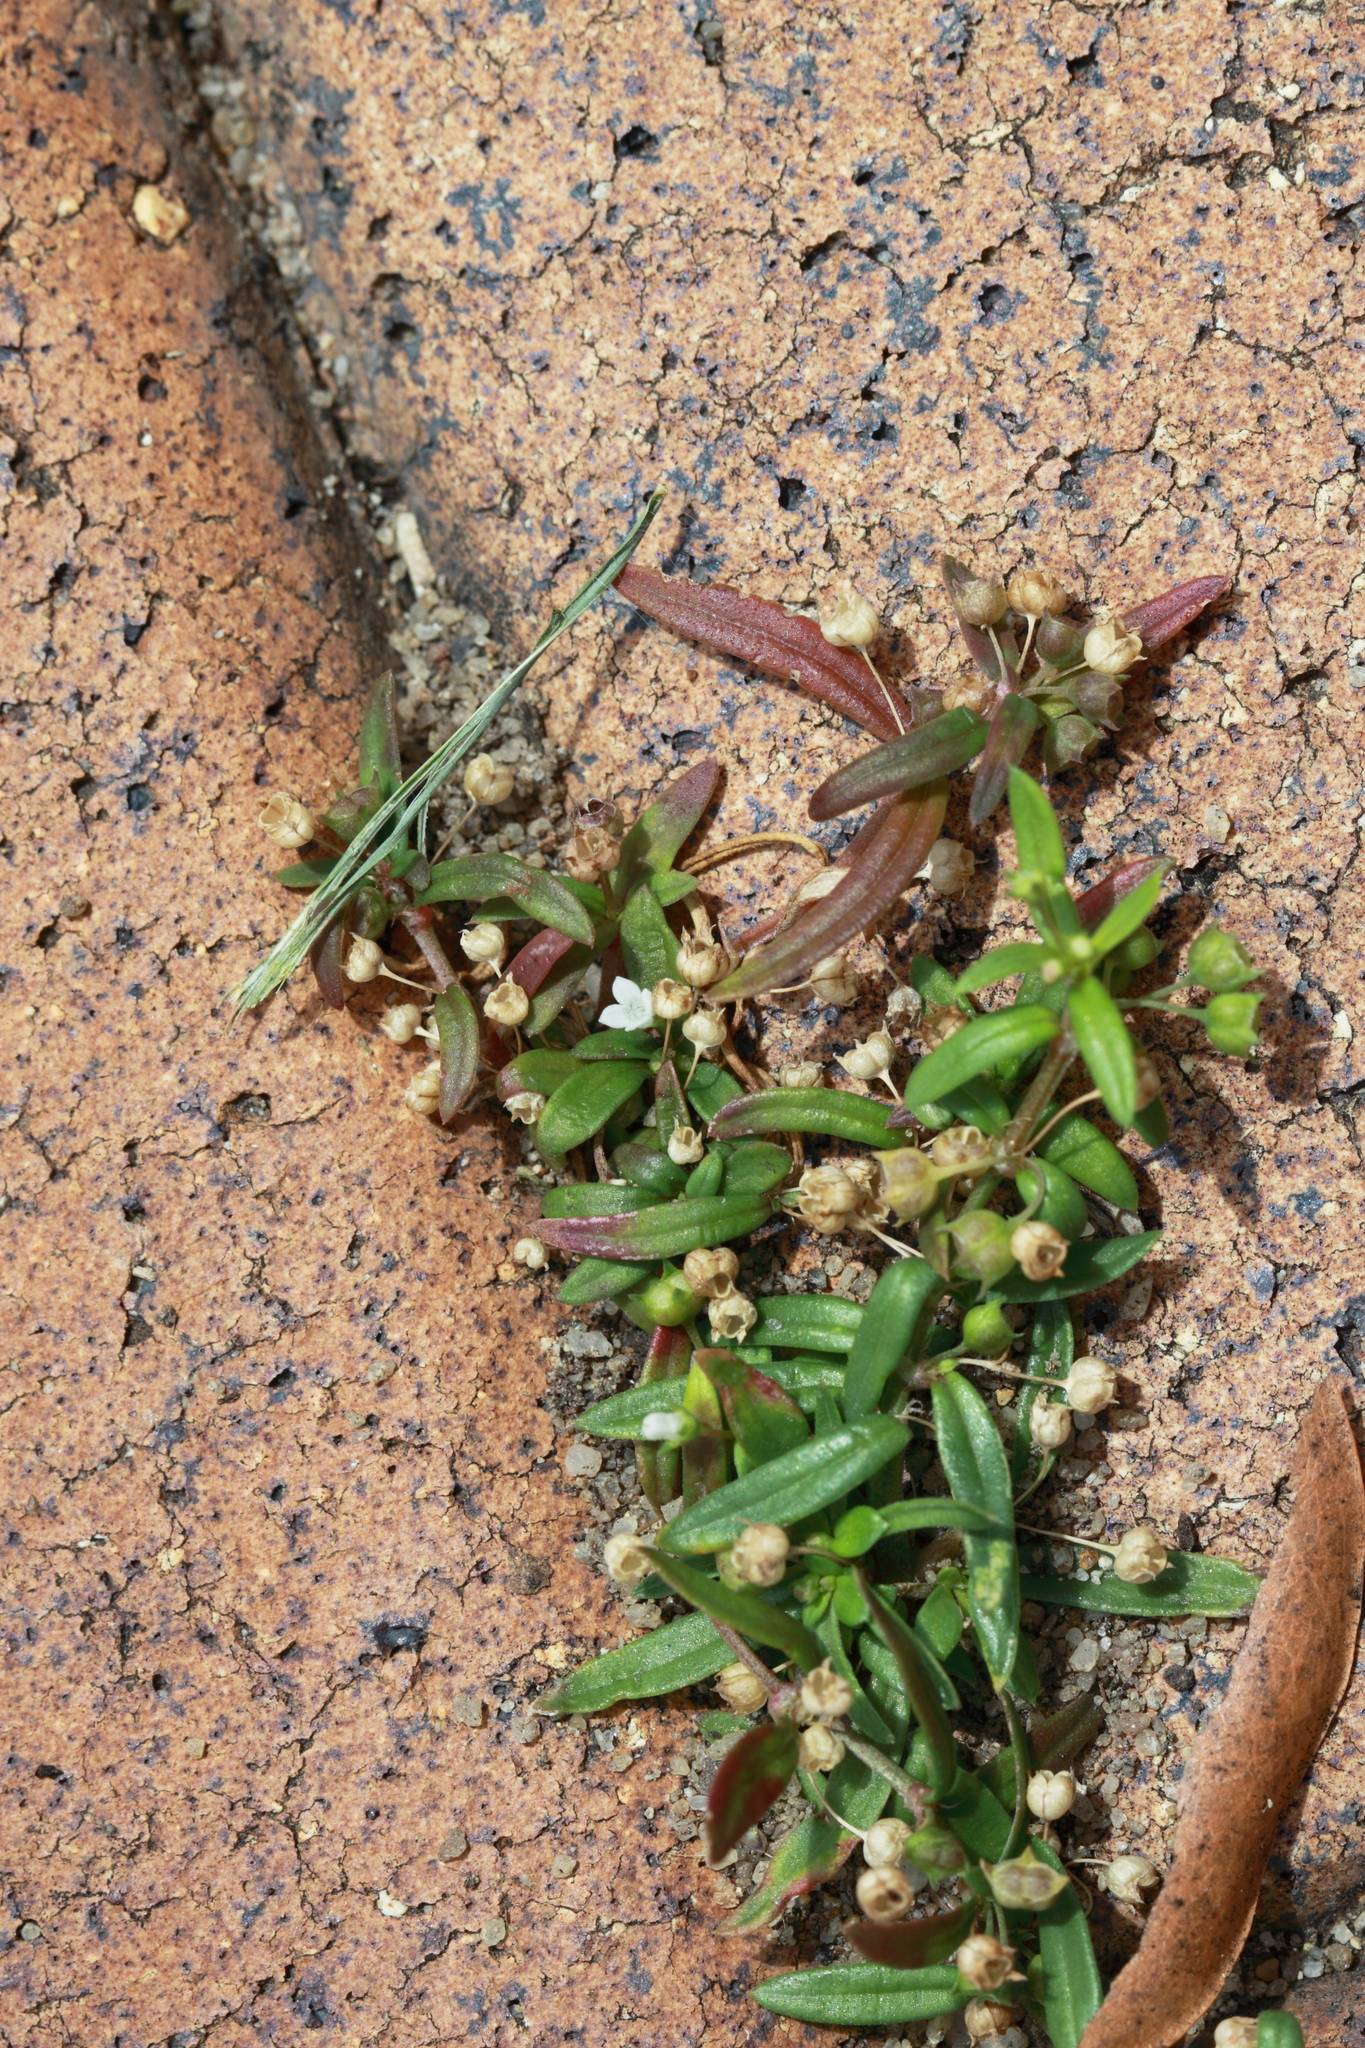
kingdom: Plantae
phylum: Tracheophyta
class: Magnoliopsida
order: Gentianales
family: Rubiaceae
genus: Oldenlandia
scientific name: Oldenlandia corymbosa
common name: Flat-top mille graines
